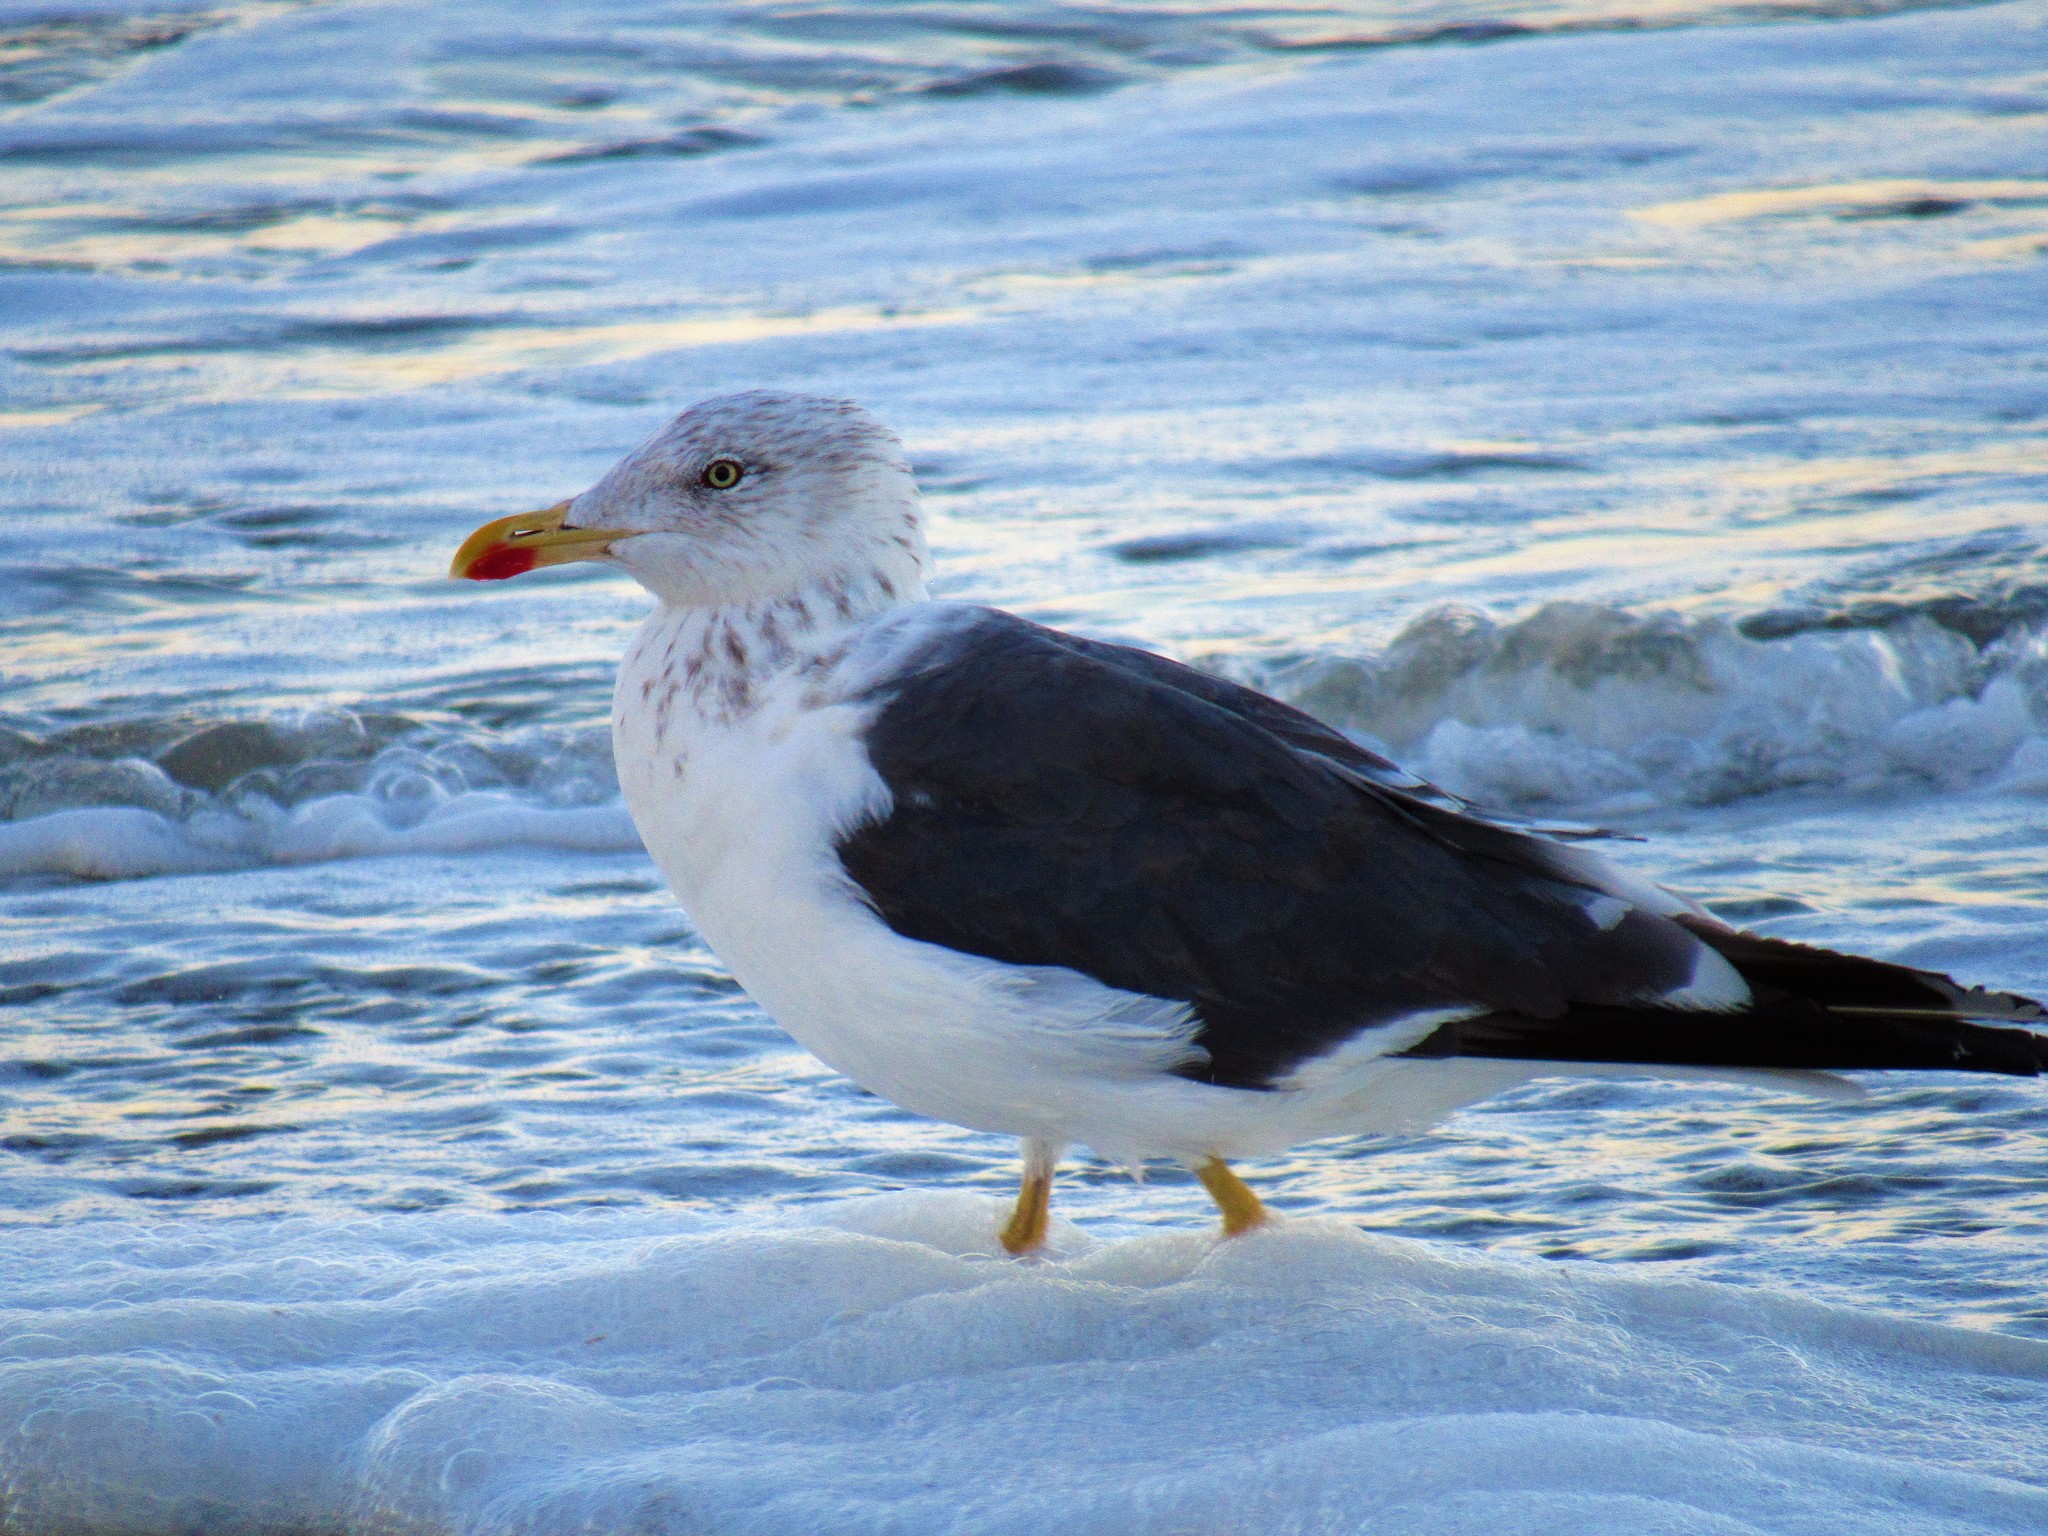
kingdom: Animalia
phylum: Chordata
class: Aves
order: Charadriiformes
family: Laridae
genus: Larus
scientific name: Larus fuscus
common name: Lesser black-backed gull
